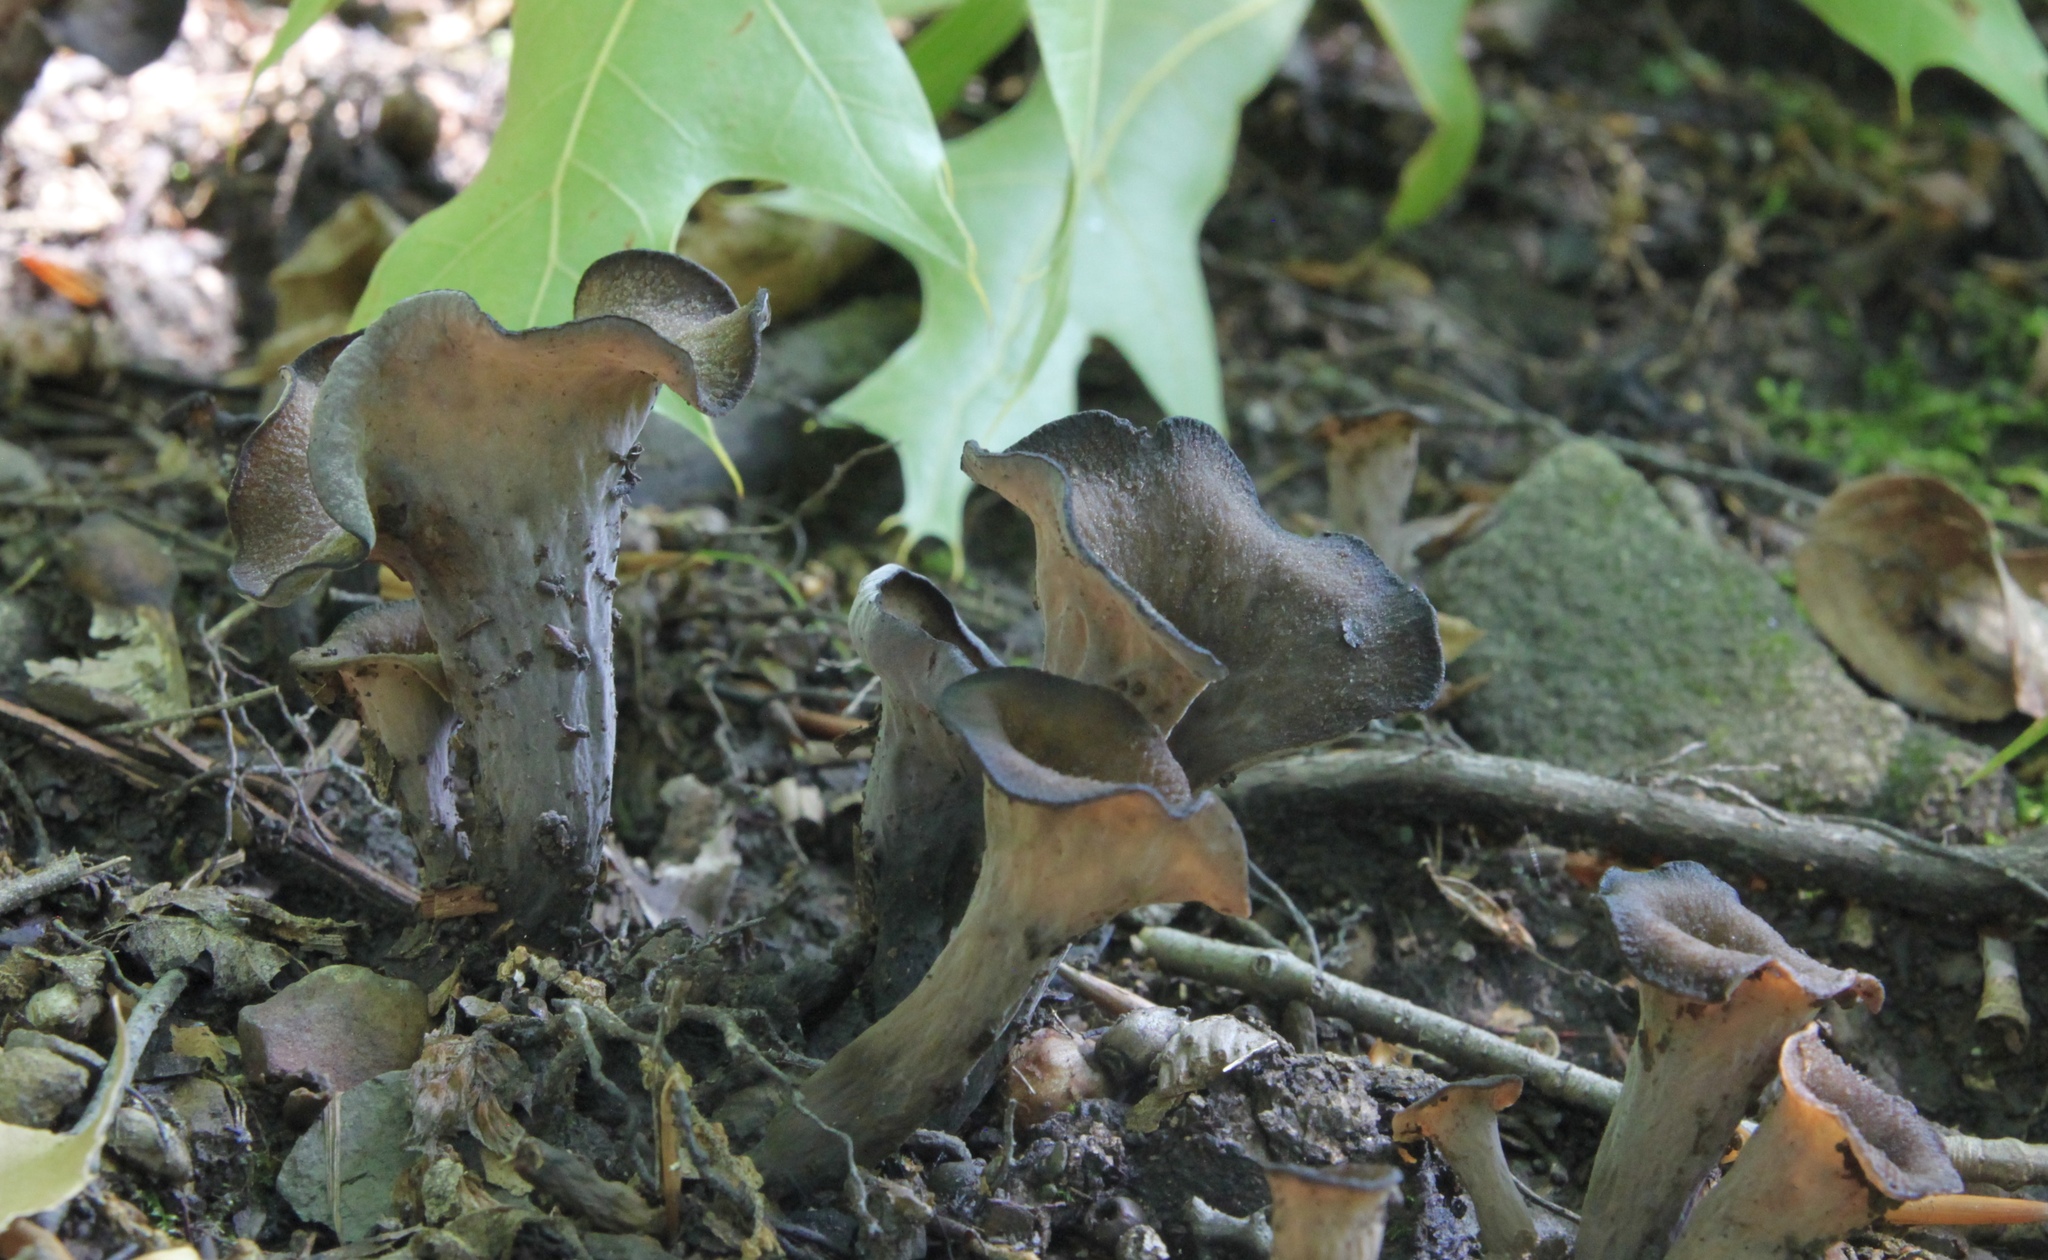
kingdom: Fungi
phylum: Basidiomycota
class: Agaricomycetes
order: Cantharellales
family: Hydnaceae
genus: Craterellus
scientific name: Craterellus cornucopioides
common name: Horn of plenty
